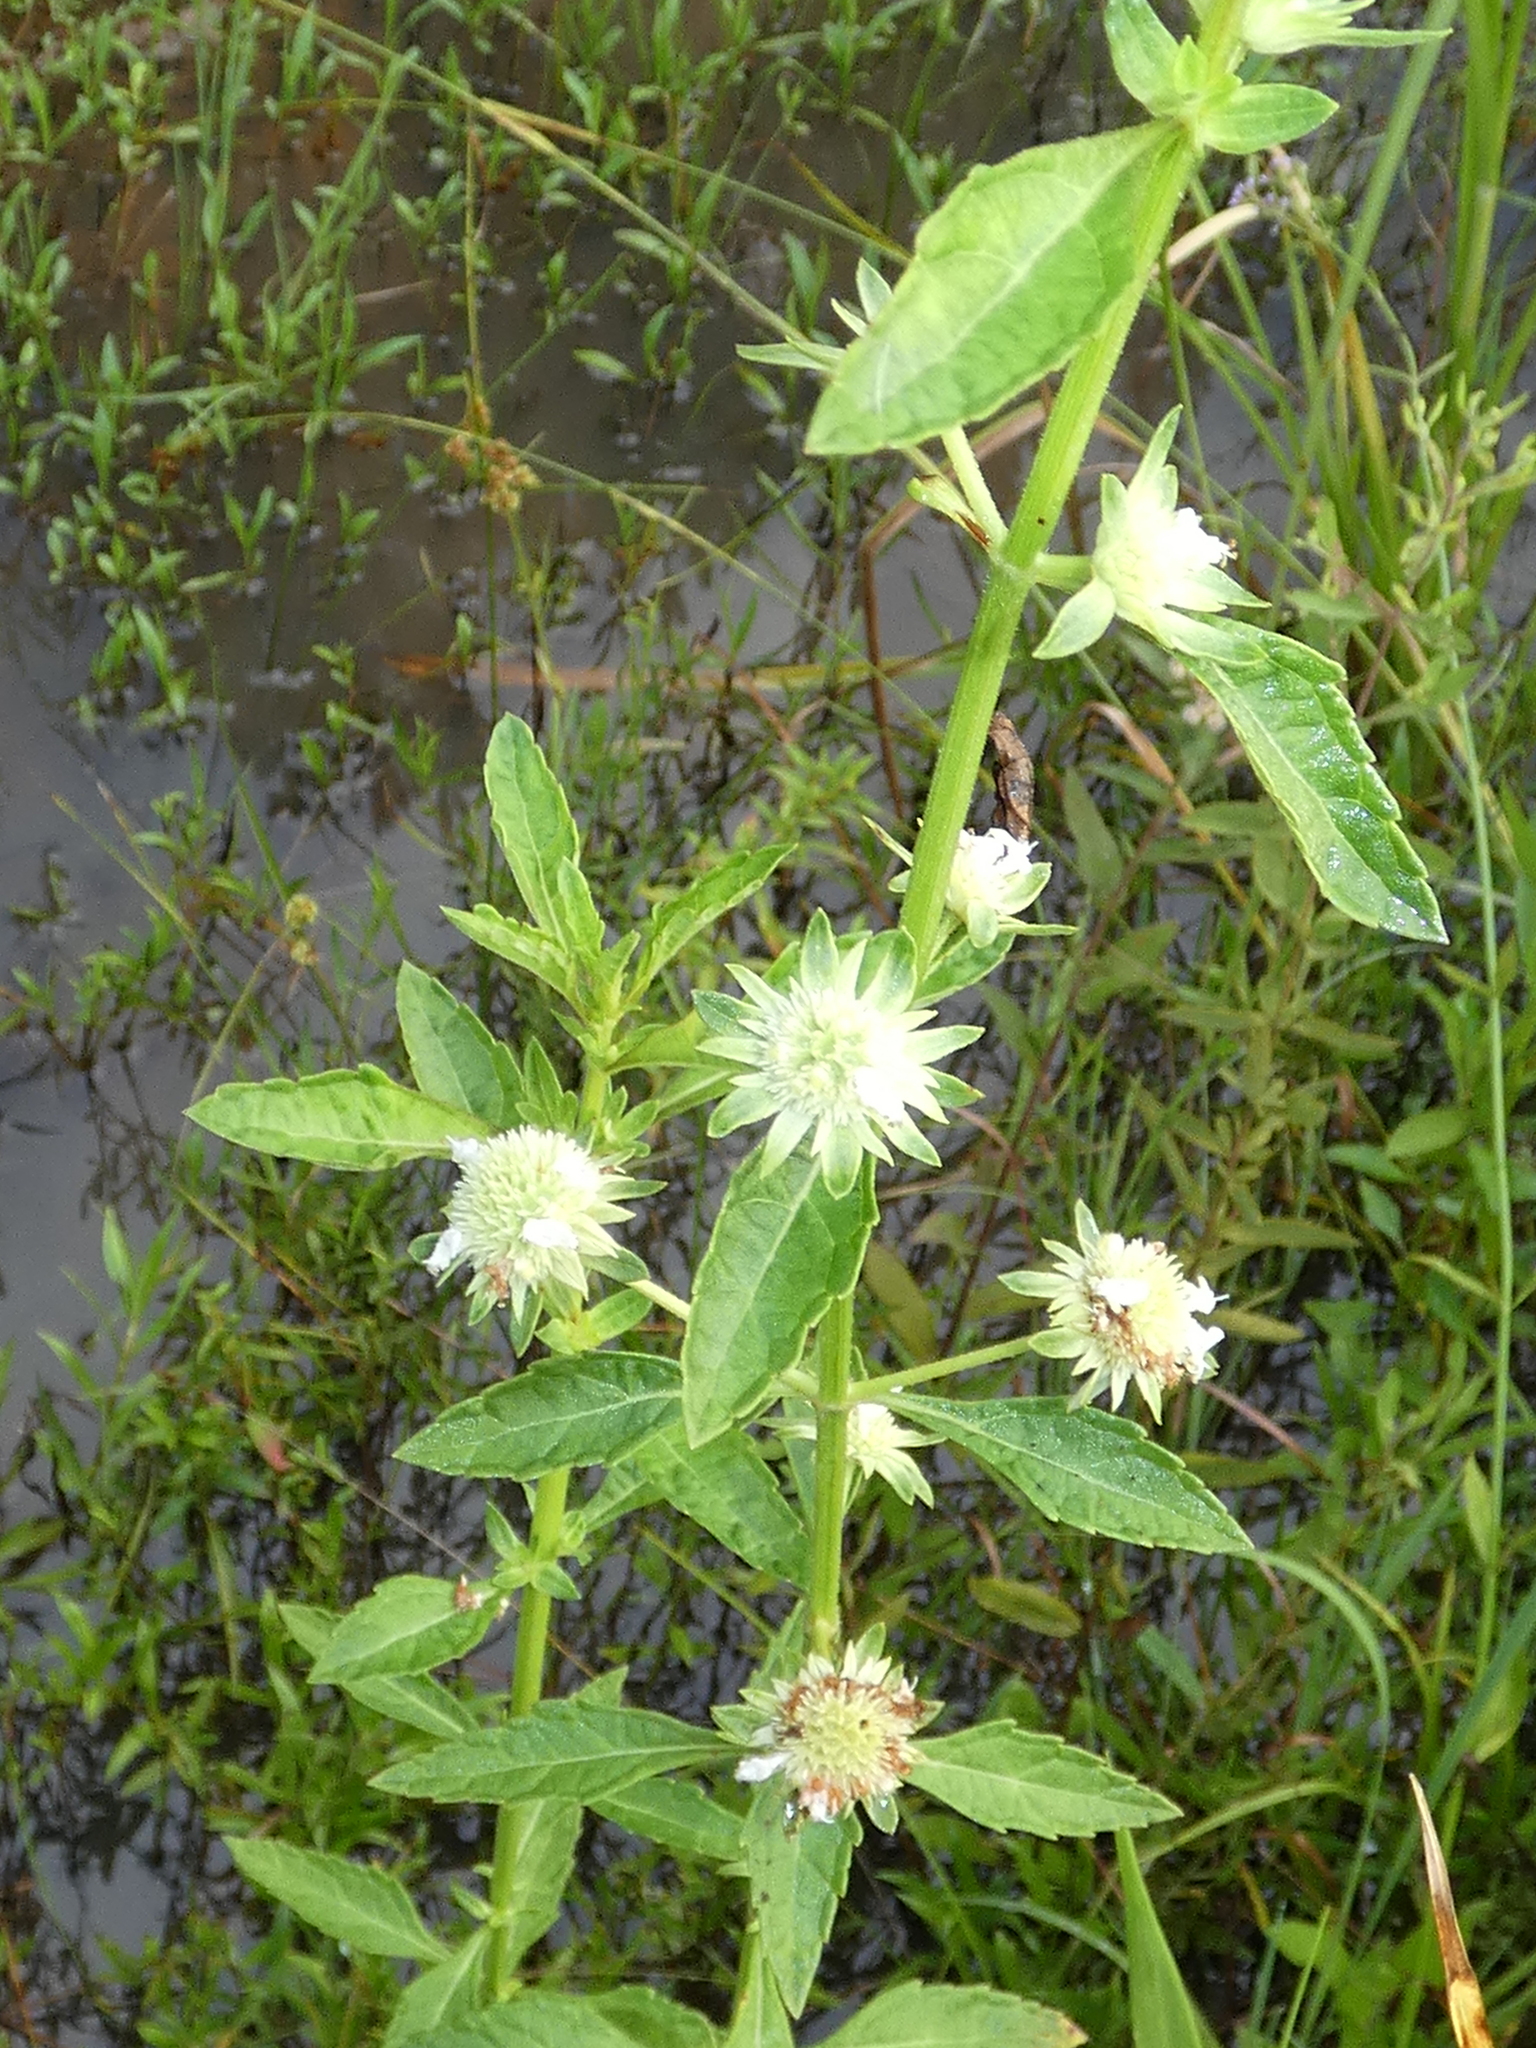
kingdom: Plantae
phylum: Tracheophyta
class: Magnoliopsida
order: Lamiales
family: Lamiaceae
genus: Hyptis
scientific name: Hyptis alata
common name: Cluster bush-mint
